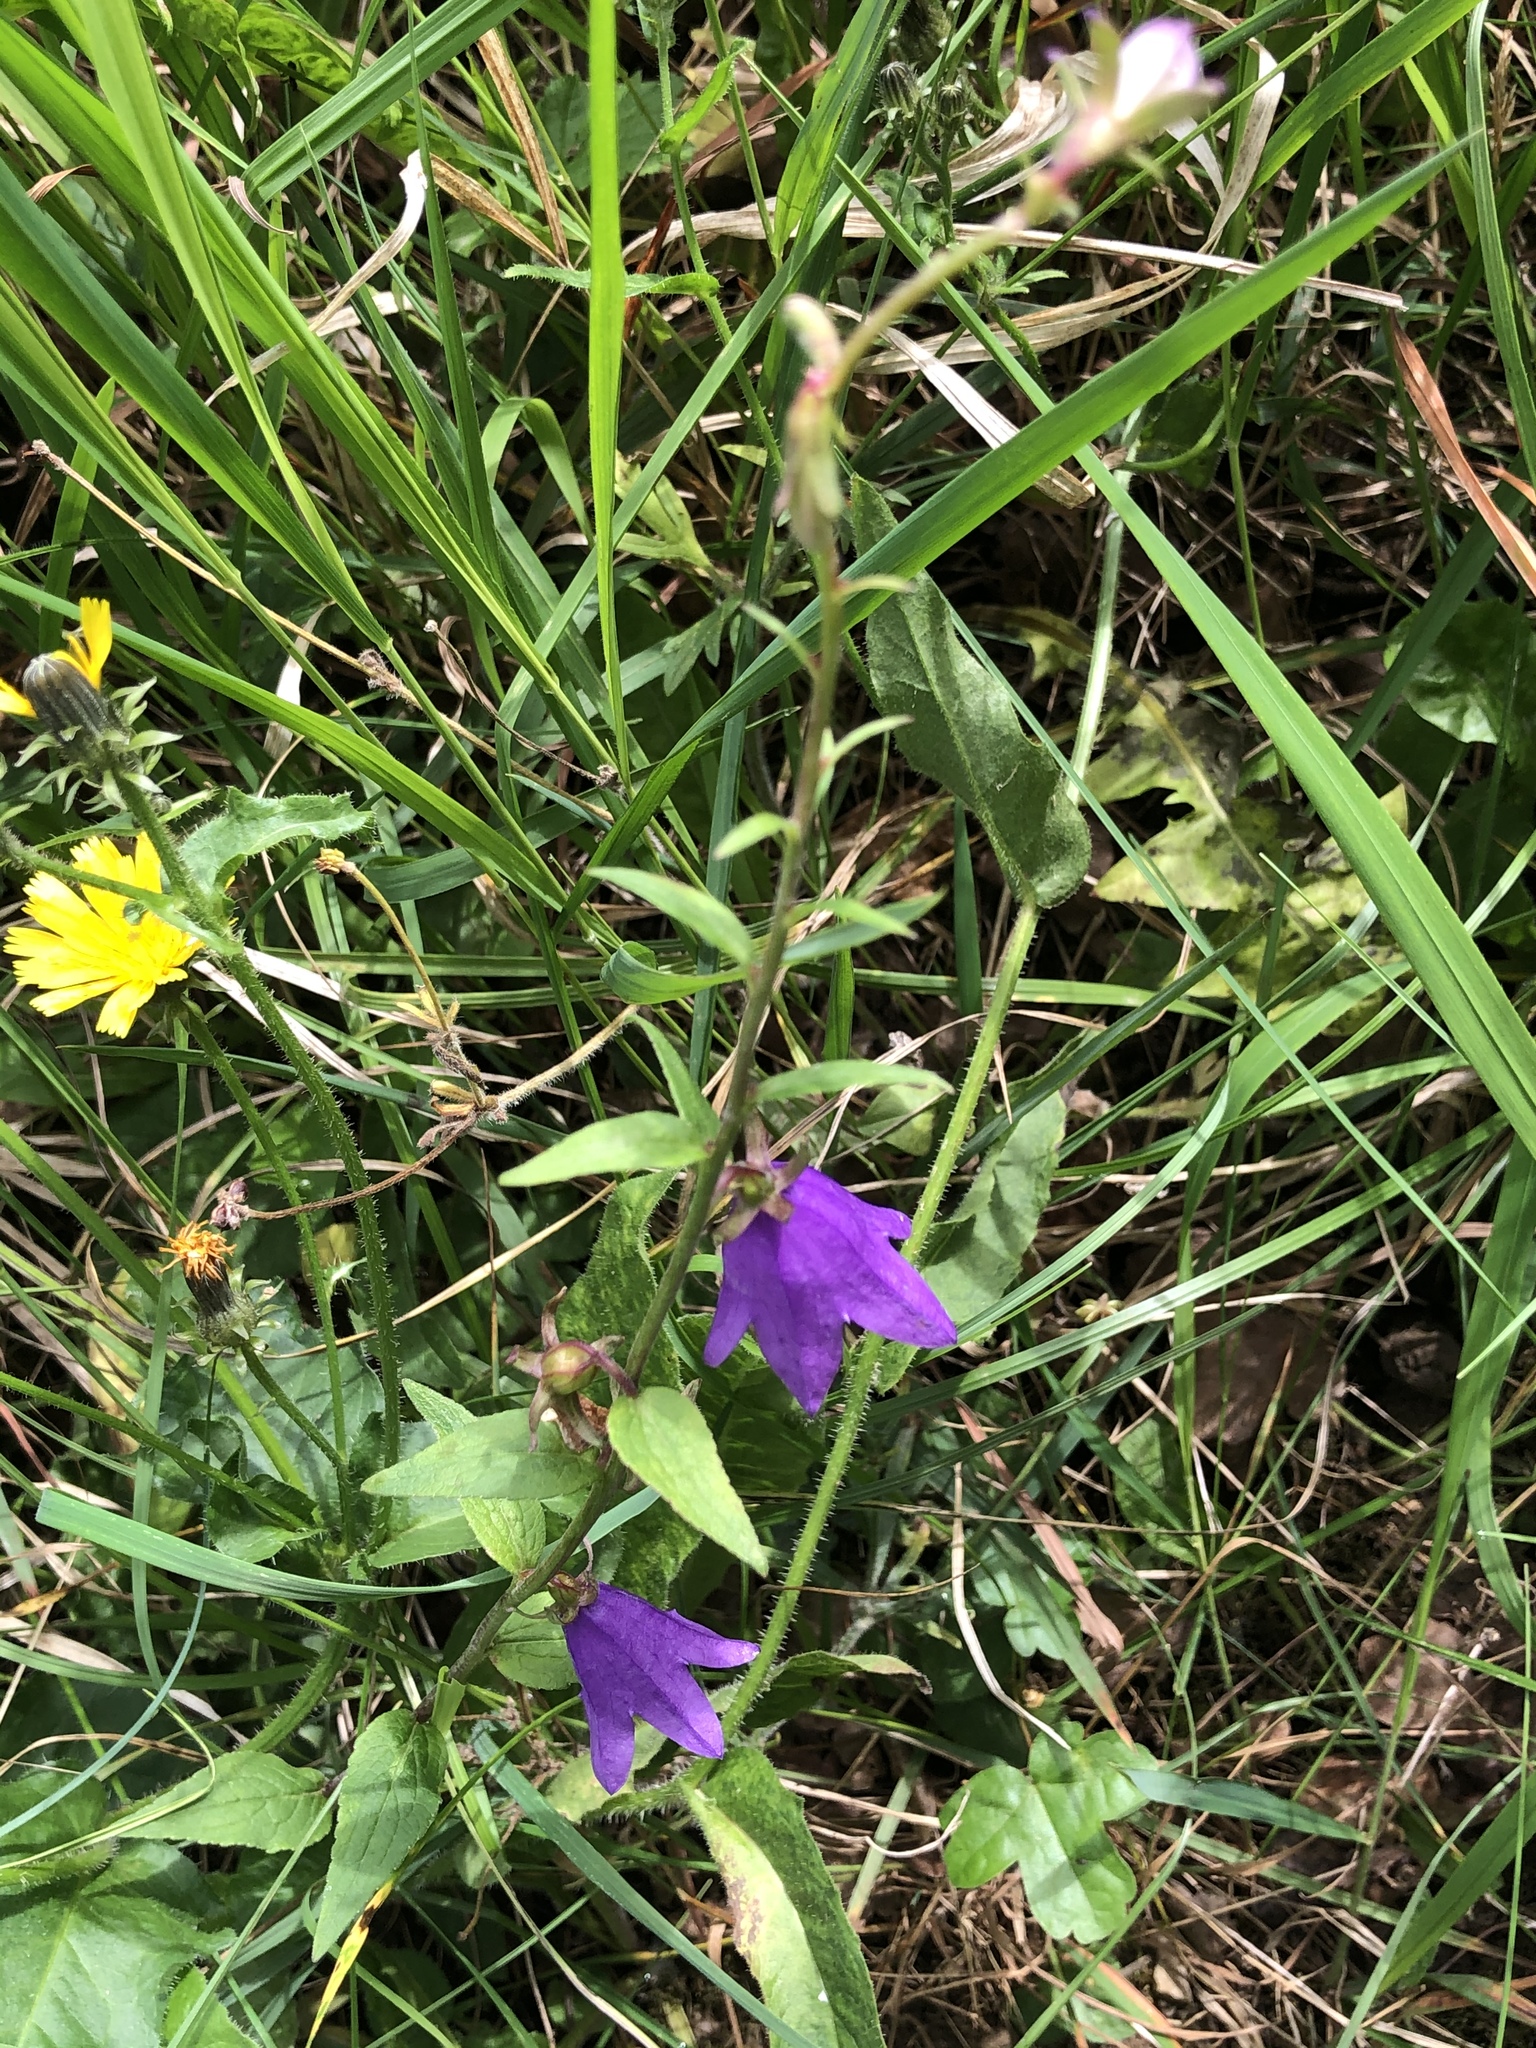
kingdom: Plantae
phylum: Tracheophyta
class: Magnoliopsida
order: Asterales
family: Campanulaceae
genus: Campanula
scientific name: Campanula rapunculoides
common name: Creeping bellflower
